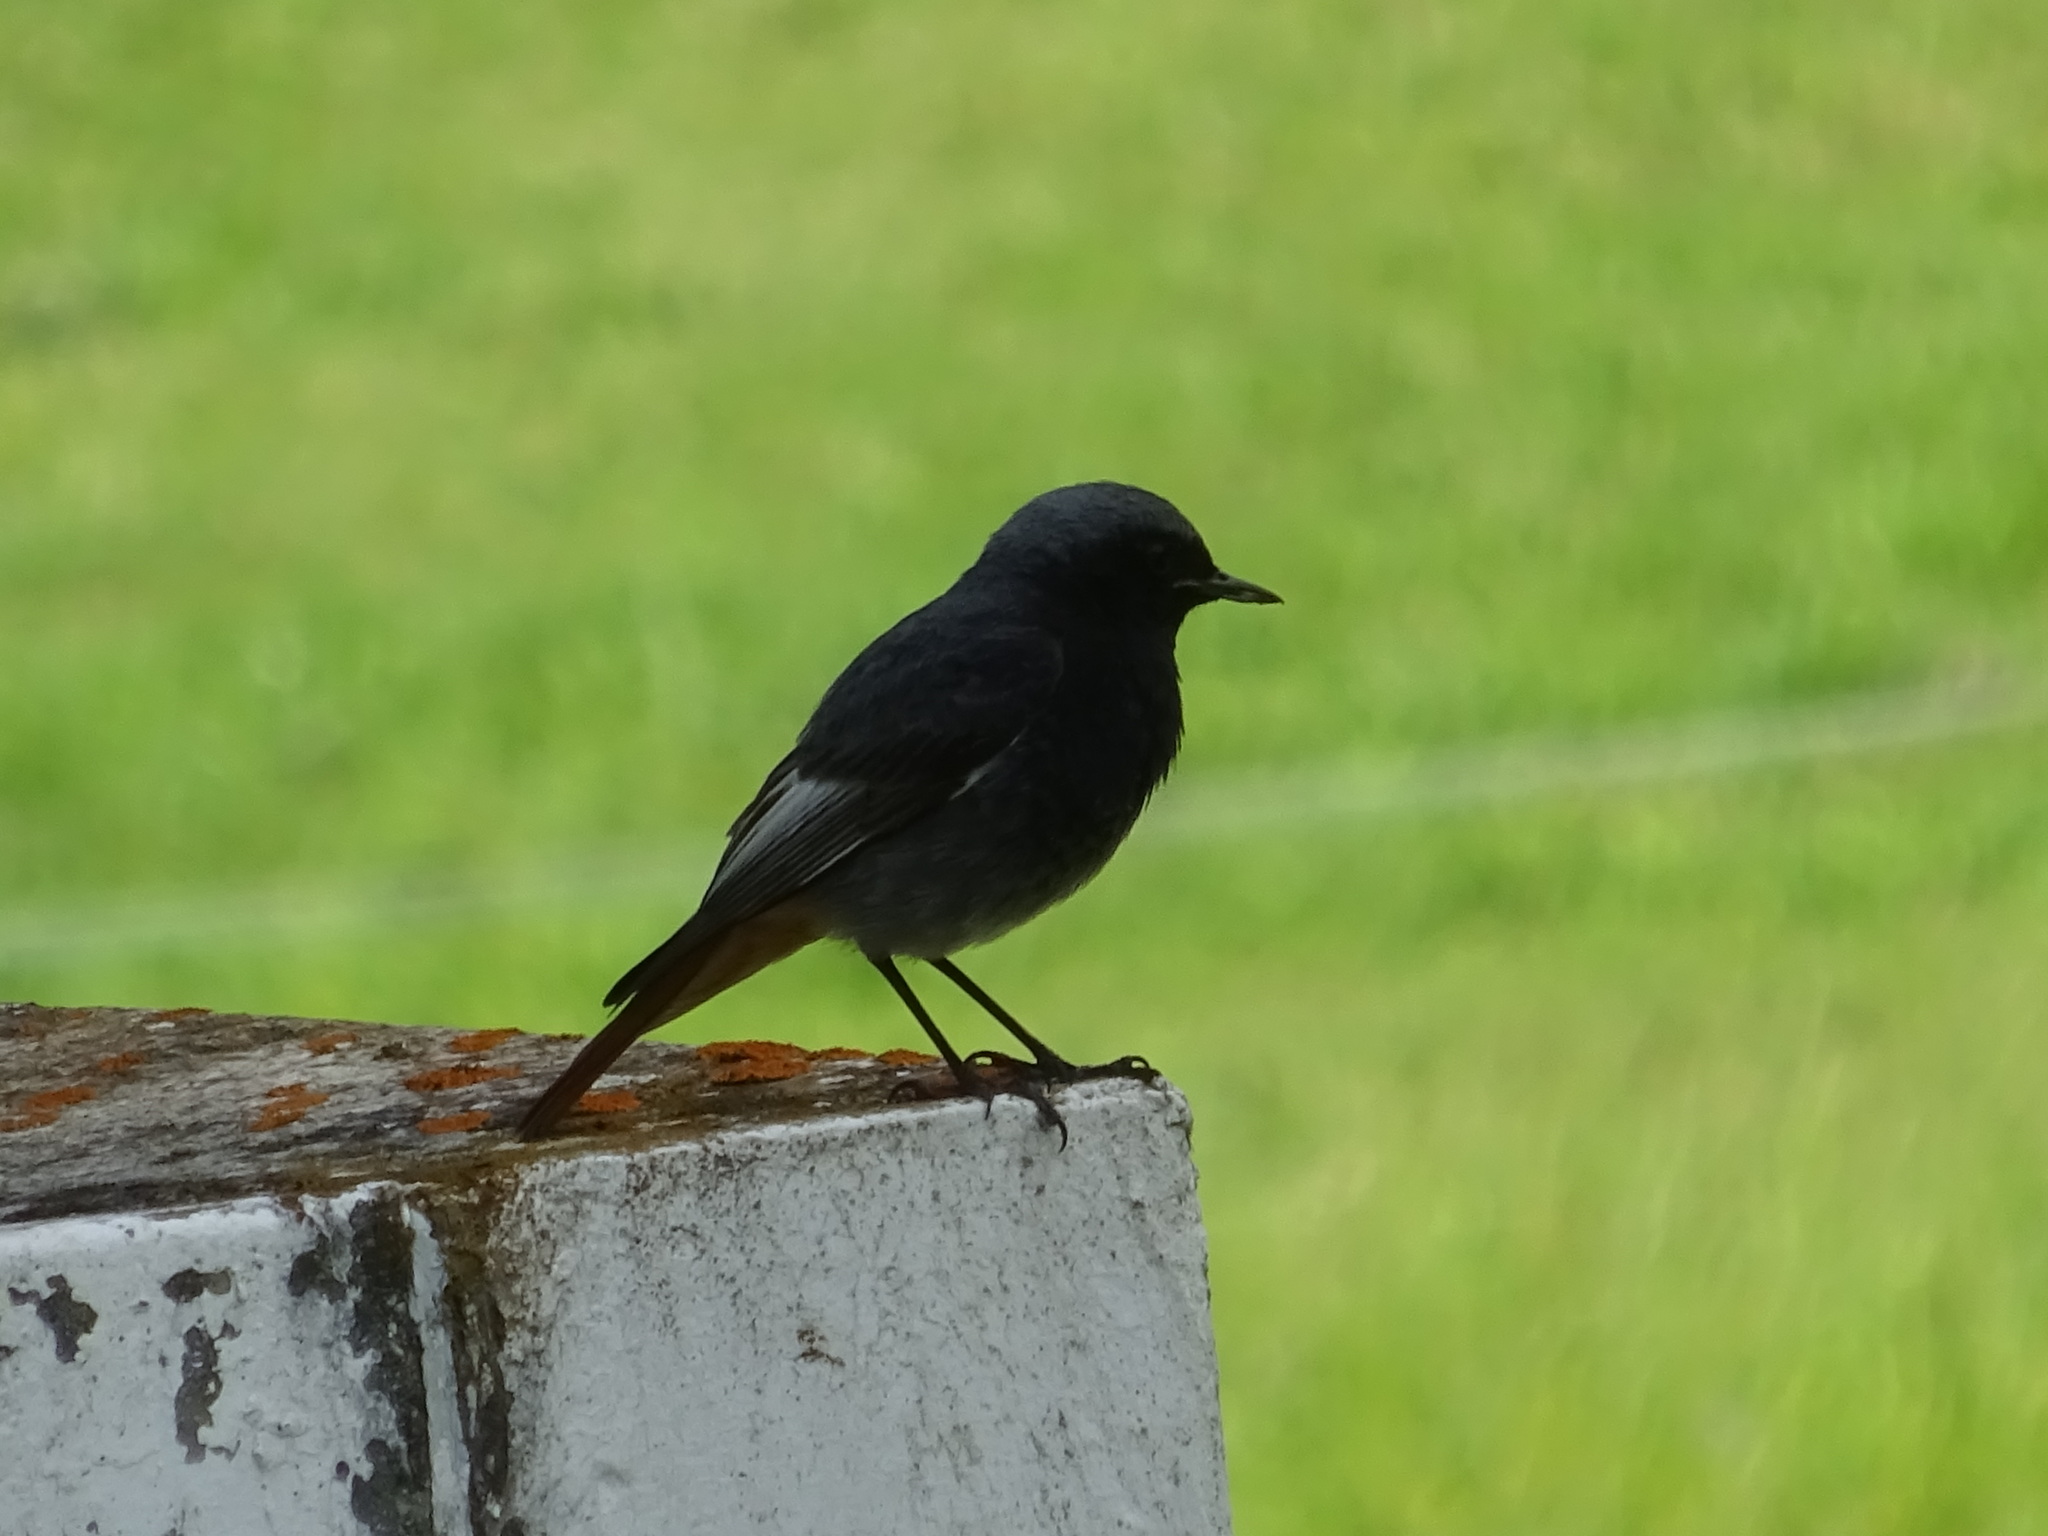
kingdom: Animalia
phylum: Chordata
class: Aves
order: Passeriformes
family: Muscicapidae
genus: Phoenicurus
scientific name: Phoenicurus ochruros
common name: Black redstart
